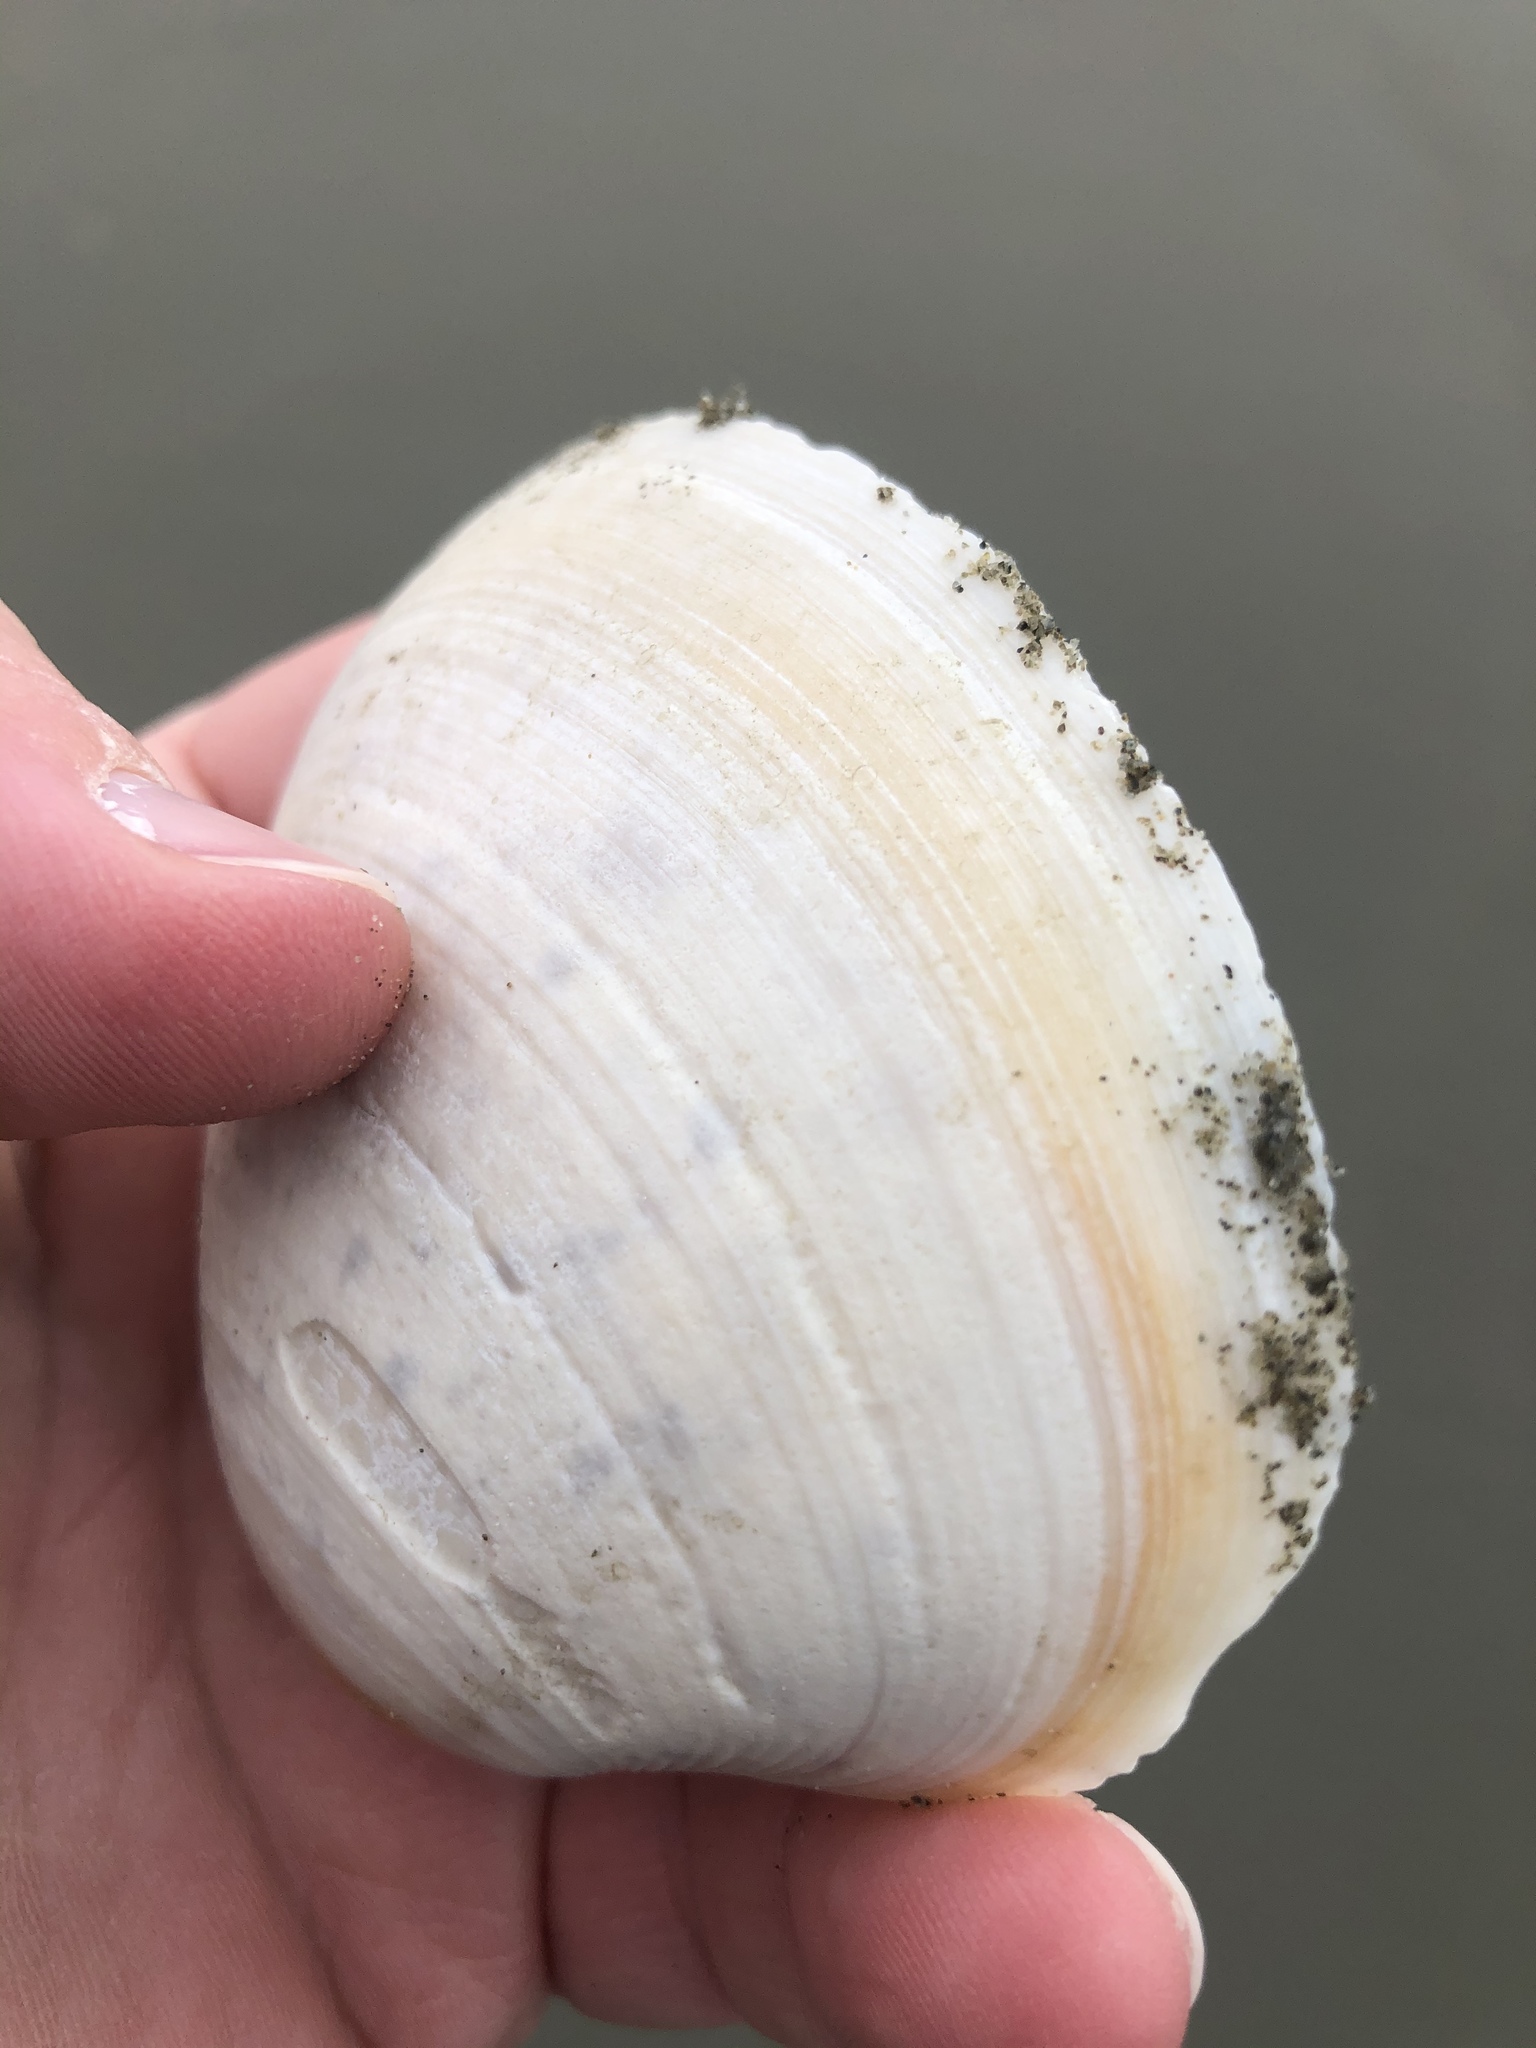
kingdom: Animalia
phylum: Mollusca
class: Bivalvia
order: Venerida
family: Mactridae
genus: Spisula
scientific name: Spisula murchisoni
